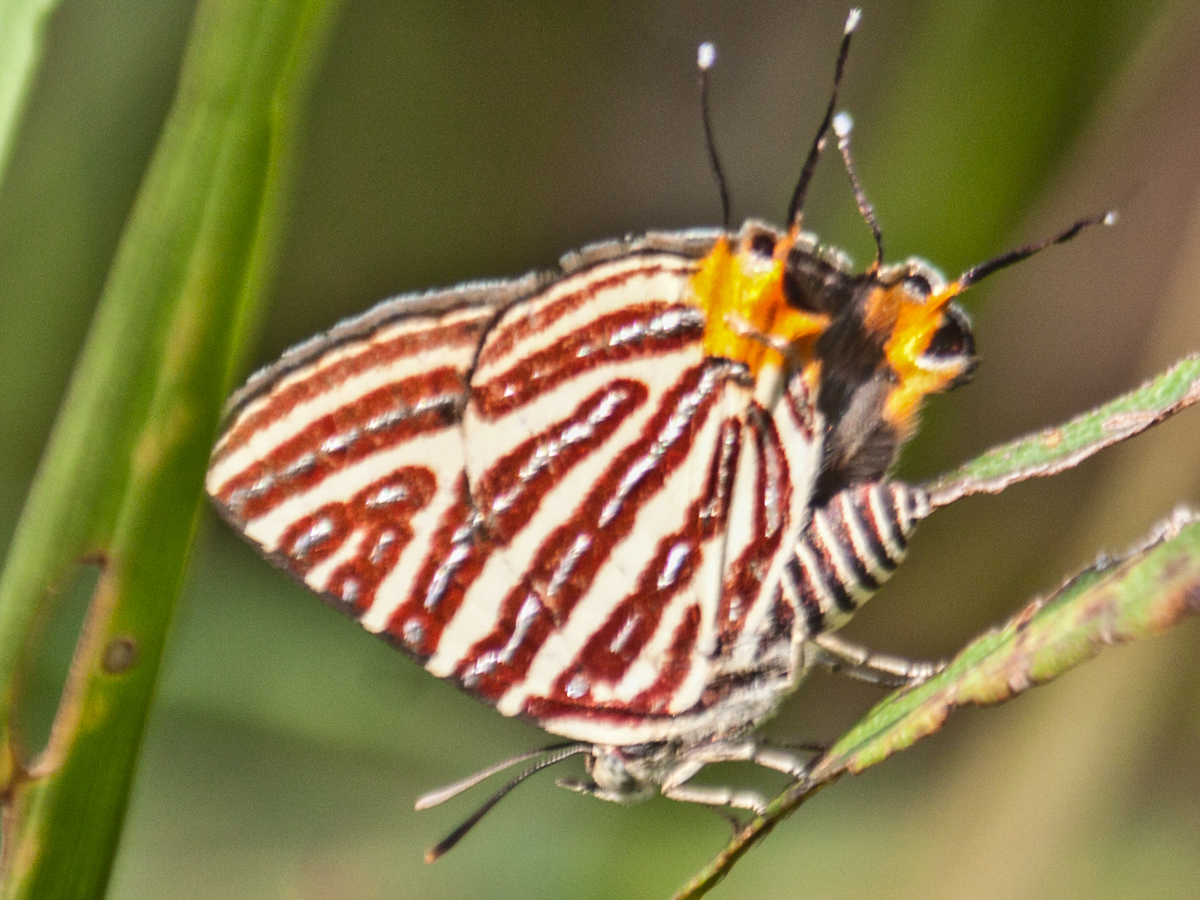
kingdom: Animalia
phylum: Arthropoda
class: Insecta
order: Lepidoptera
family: Lycaenidae
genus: Cigaritis
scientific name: Cigaritis lohita
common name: Long-banded silverline
